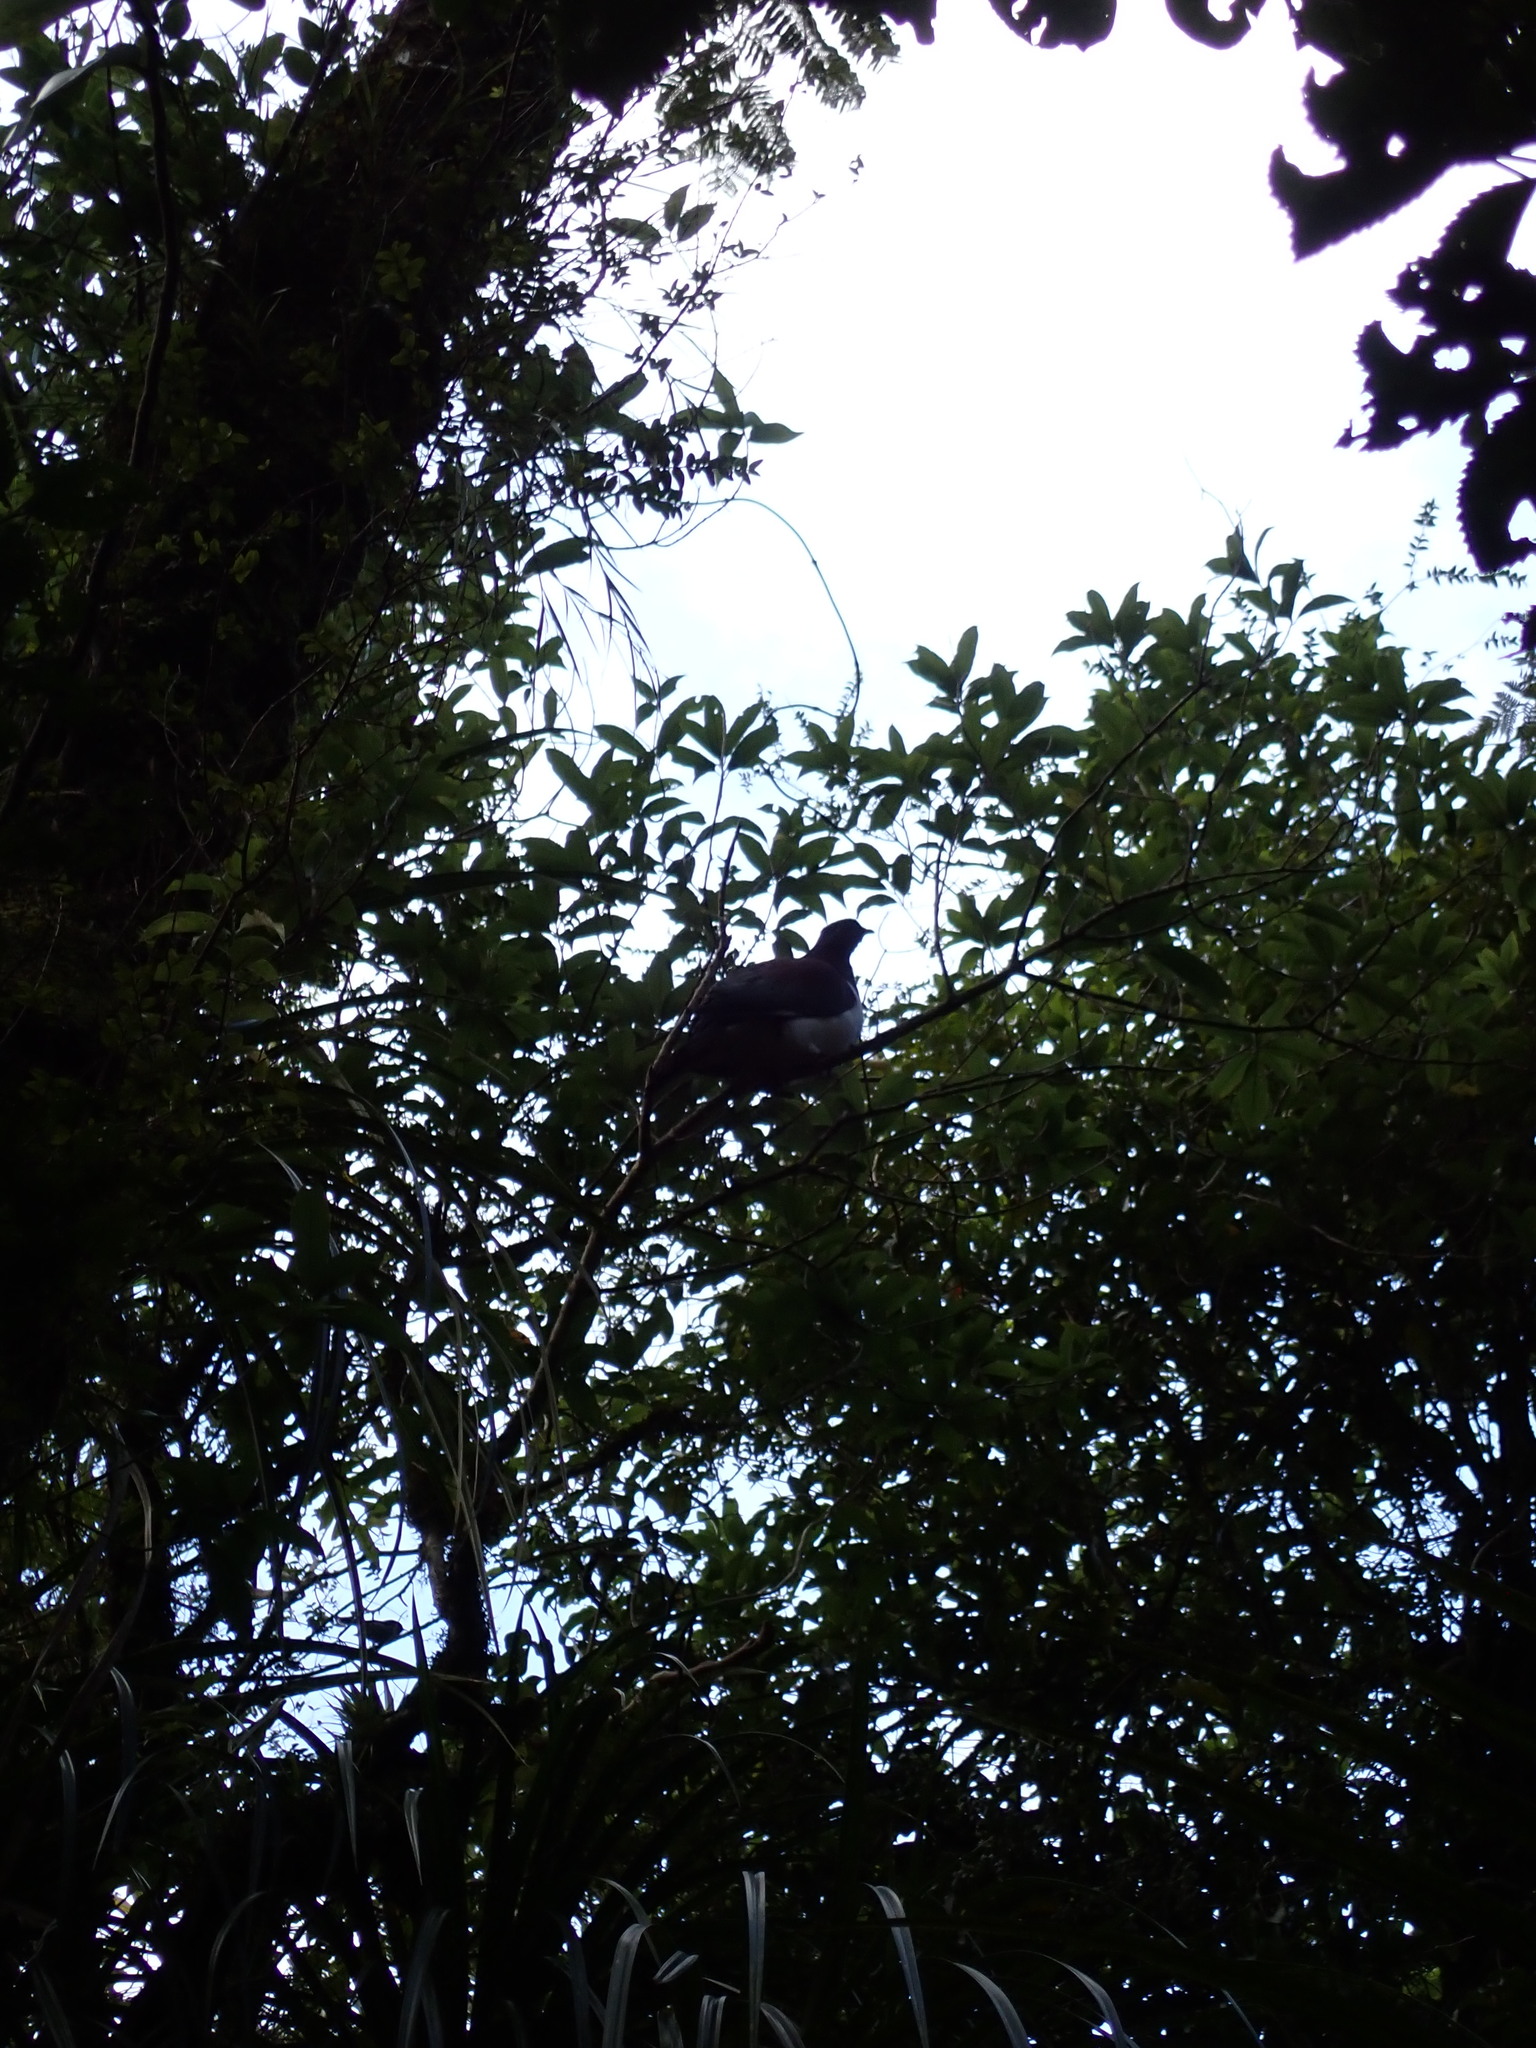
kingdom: Animalia
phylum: Chordata
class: Aves
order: Columbiformes
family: Columbidae
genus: Hemiphaga
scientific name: Hemiphaga novaeseelandiae
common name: New zealand pigeon
